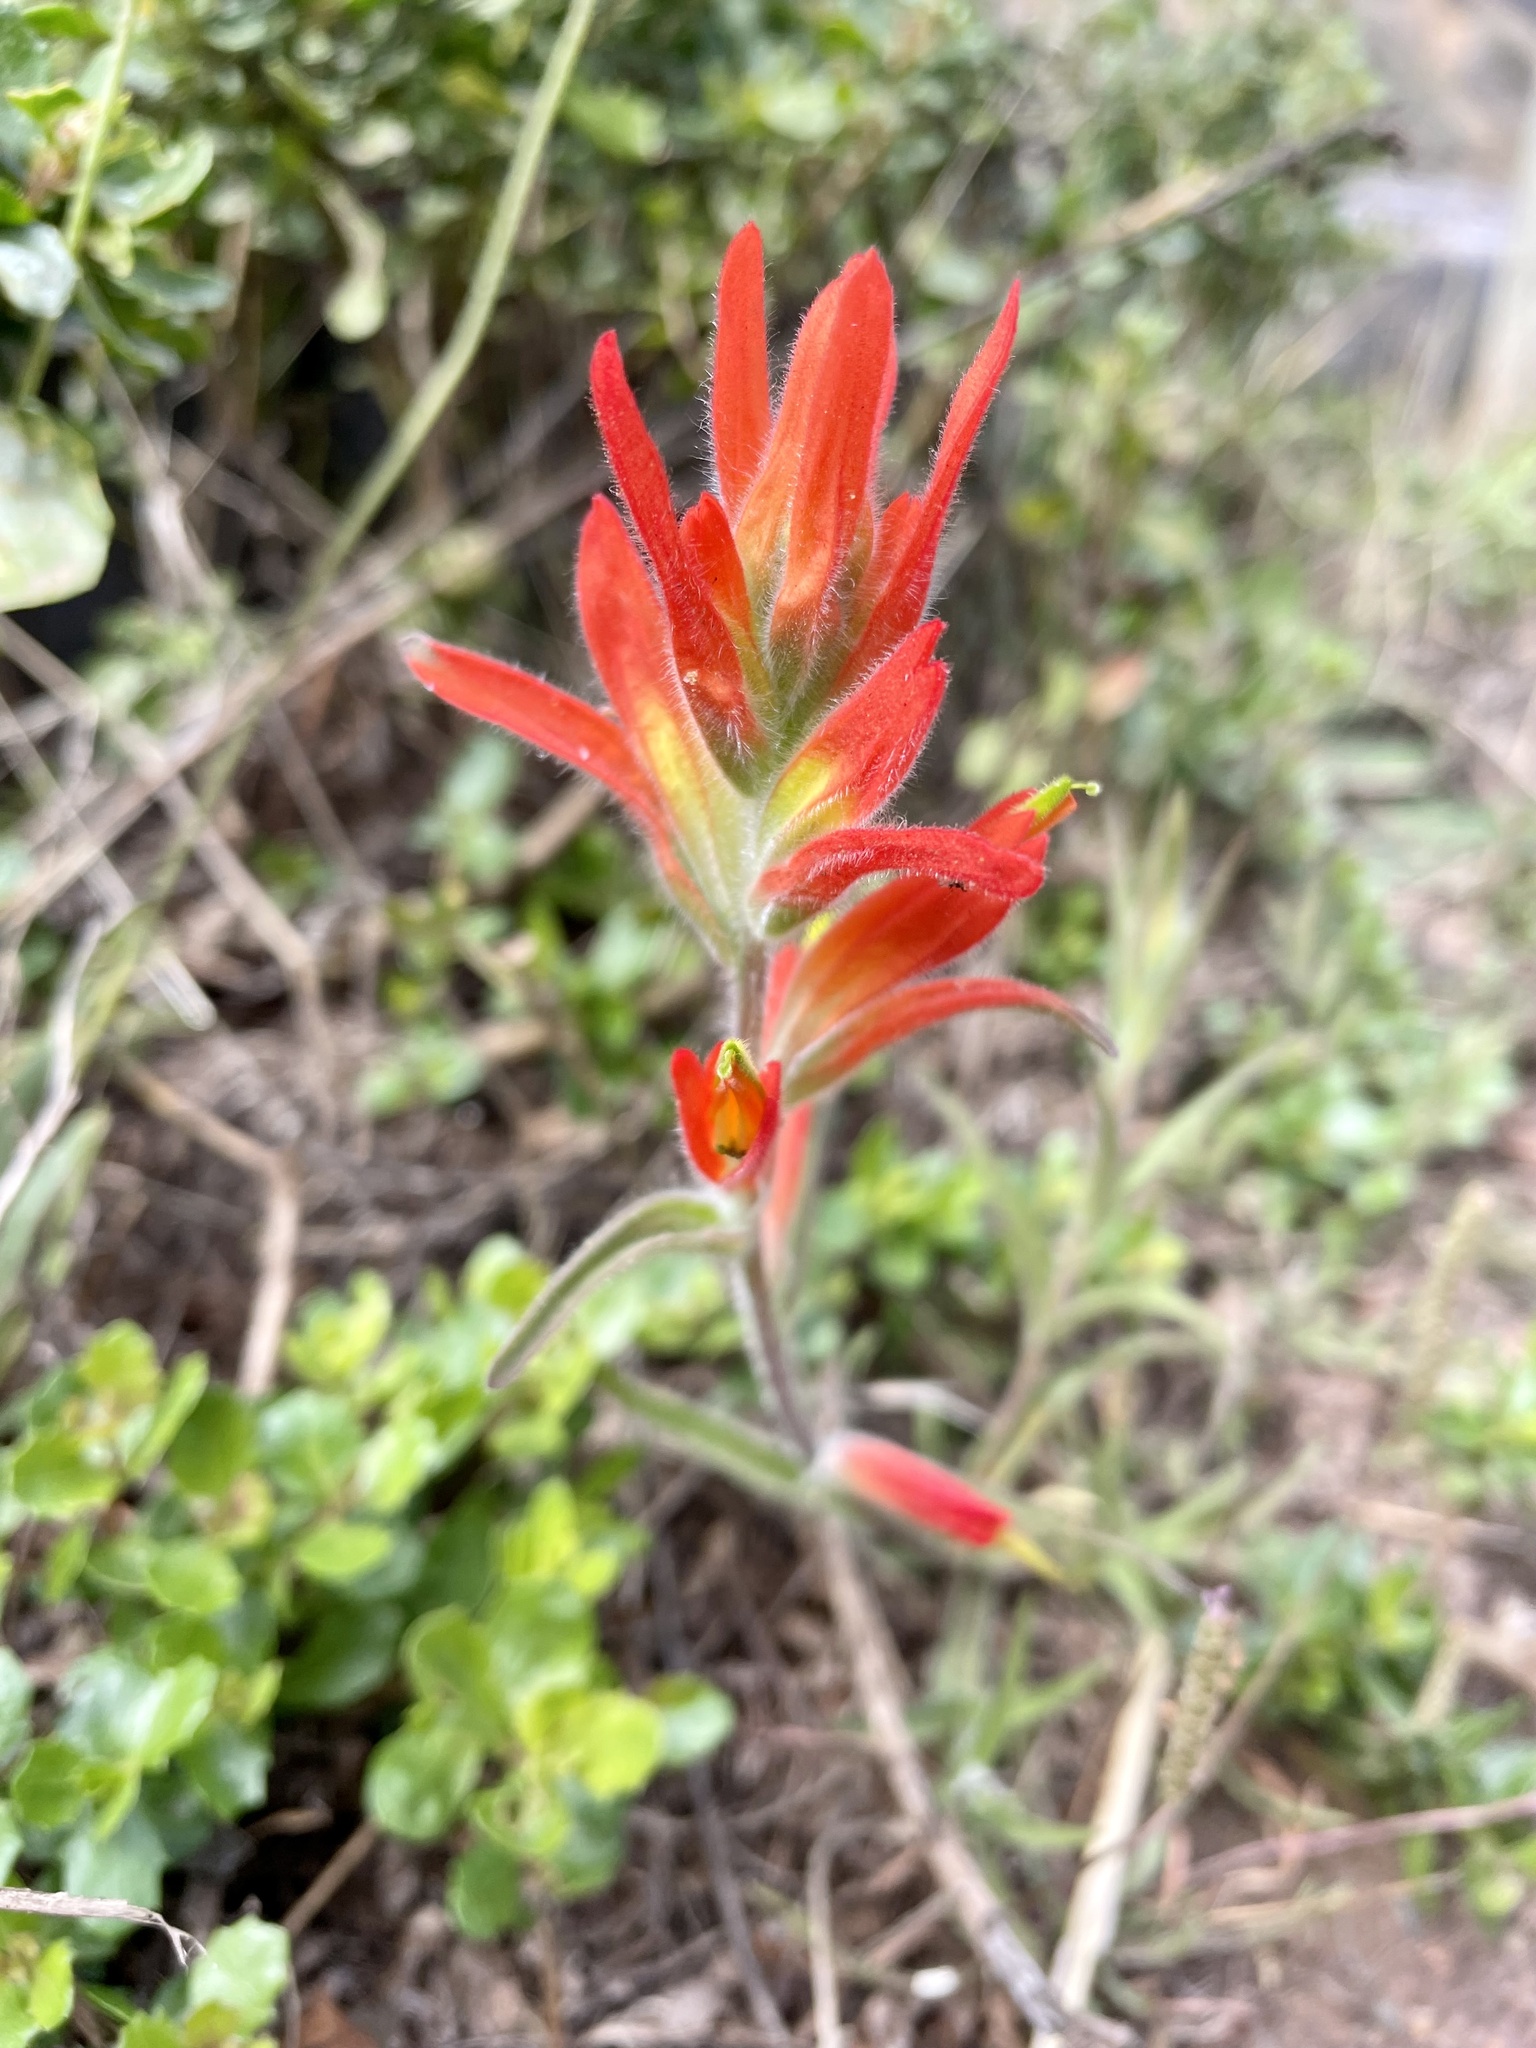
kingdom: Plantae
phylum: Tracheophyta
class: Magnoliopsida
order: Lamiales
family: Orobanchaceae
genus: Castilleja
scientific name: Castilleja subinclusa
